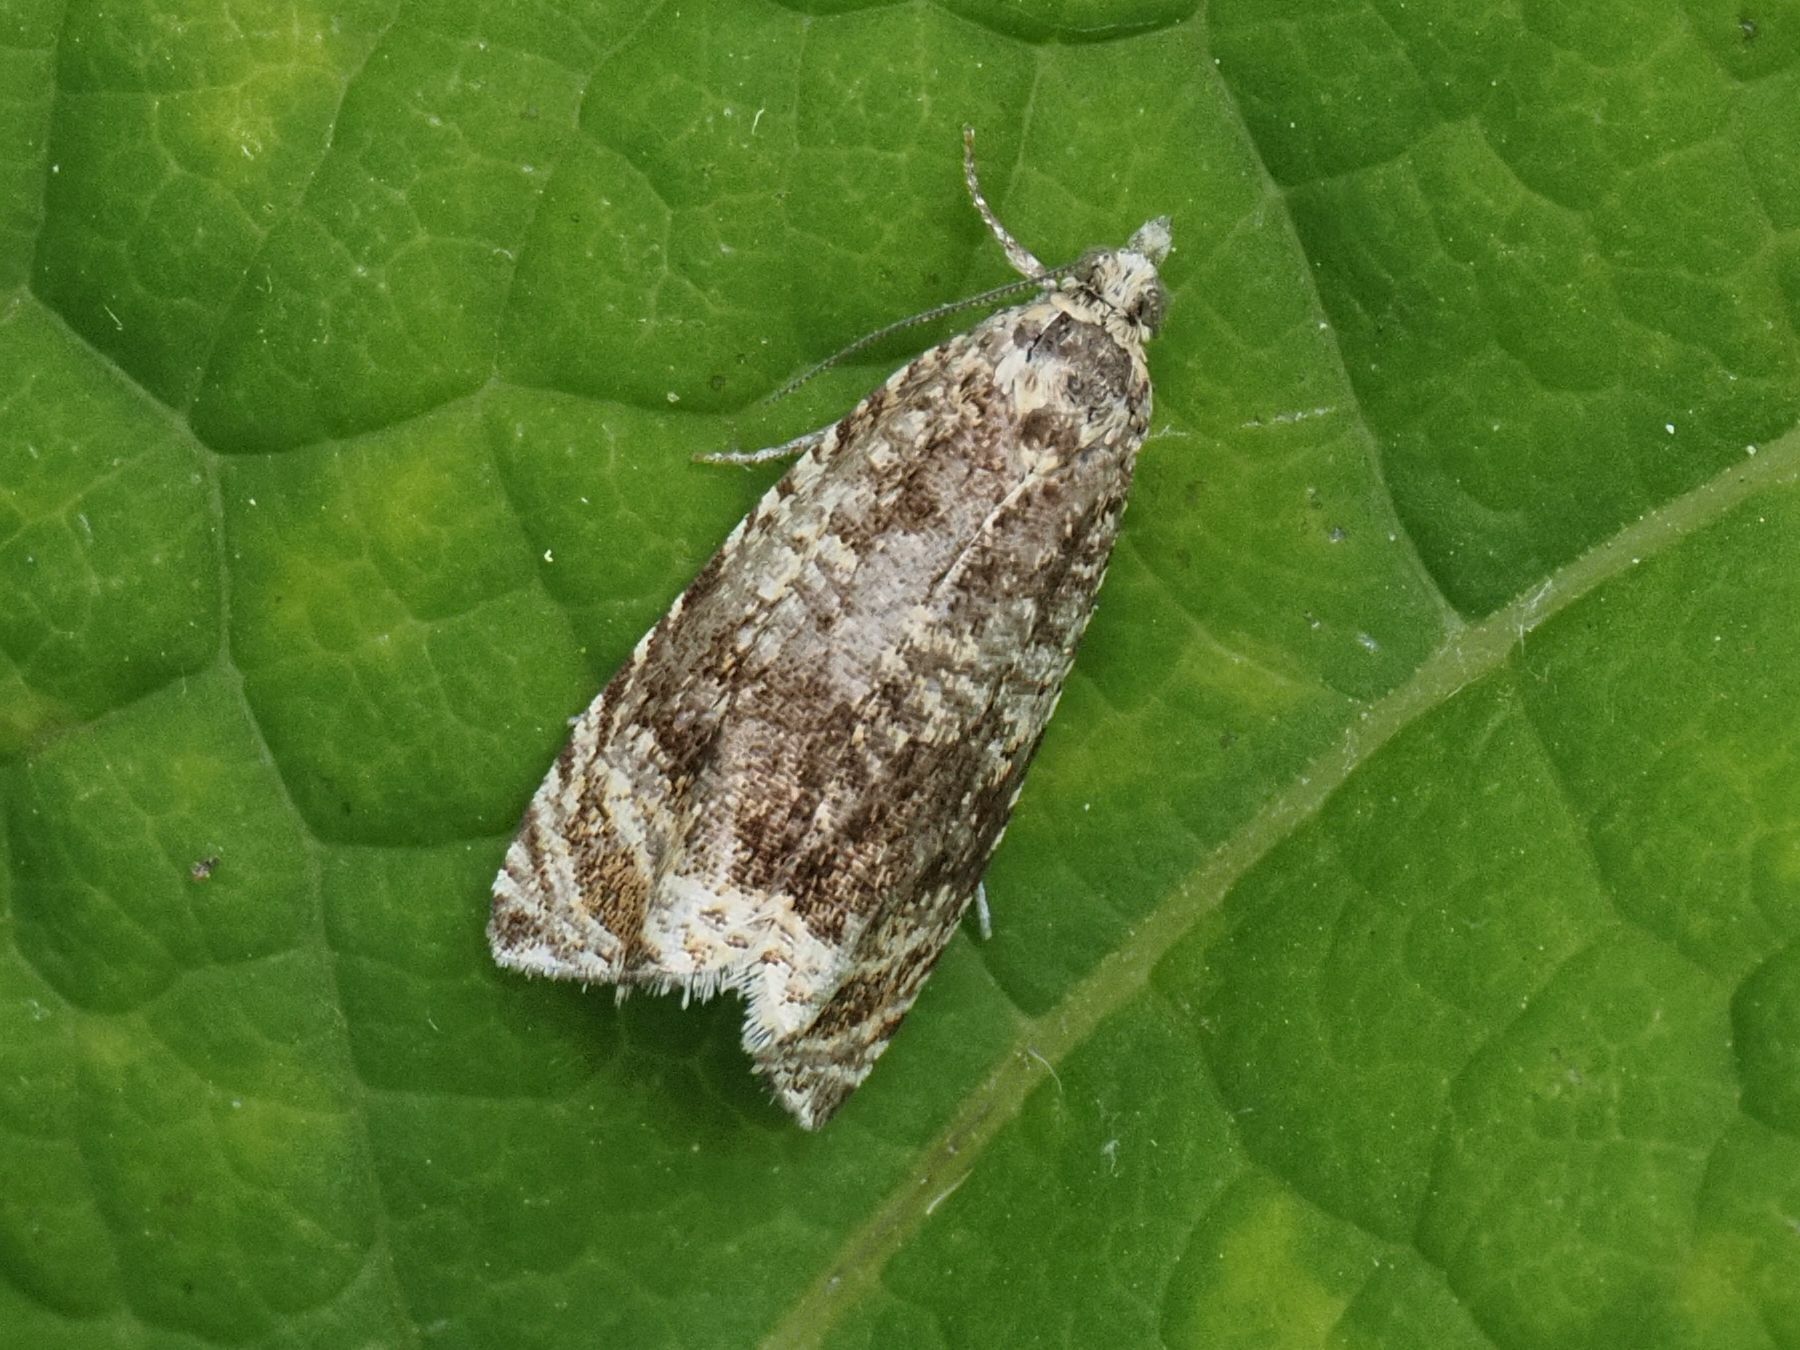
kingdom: Animalia
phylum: Arthropoda
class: Insecta
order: Lepidoptera
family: Tortricidae
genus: Syricoris
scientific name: Syricoris lacunana
